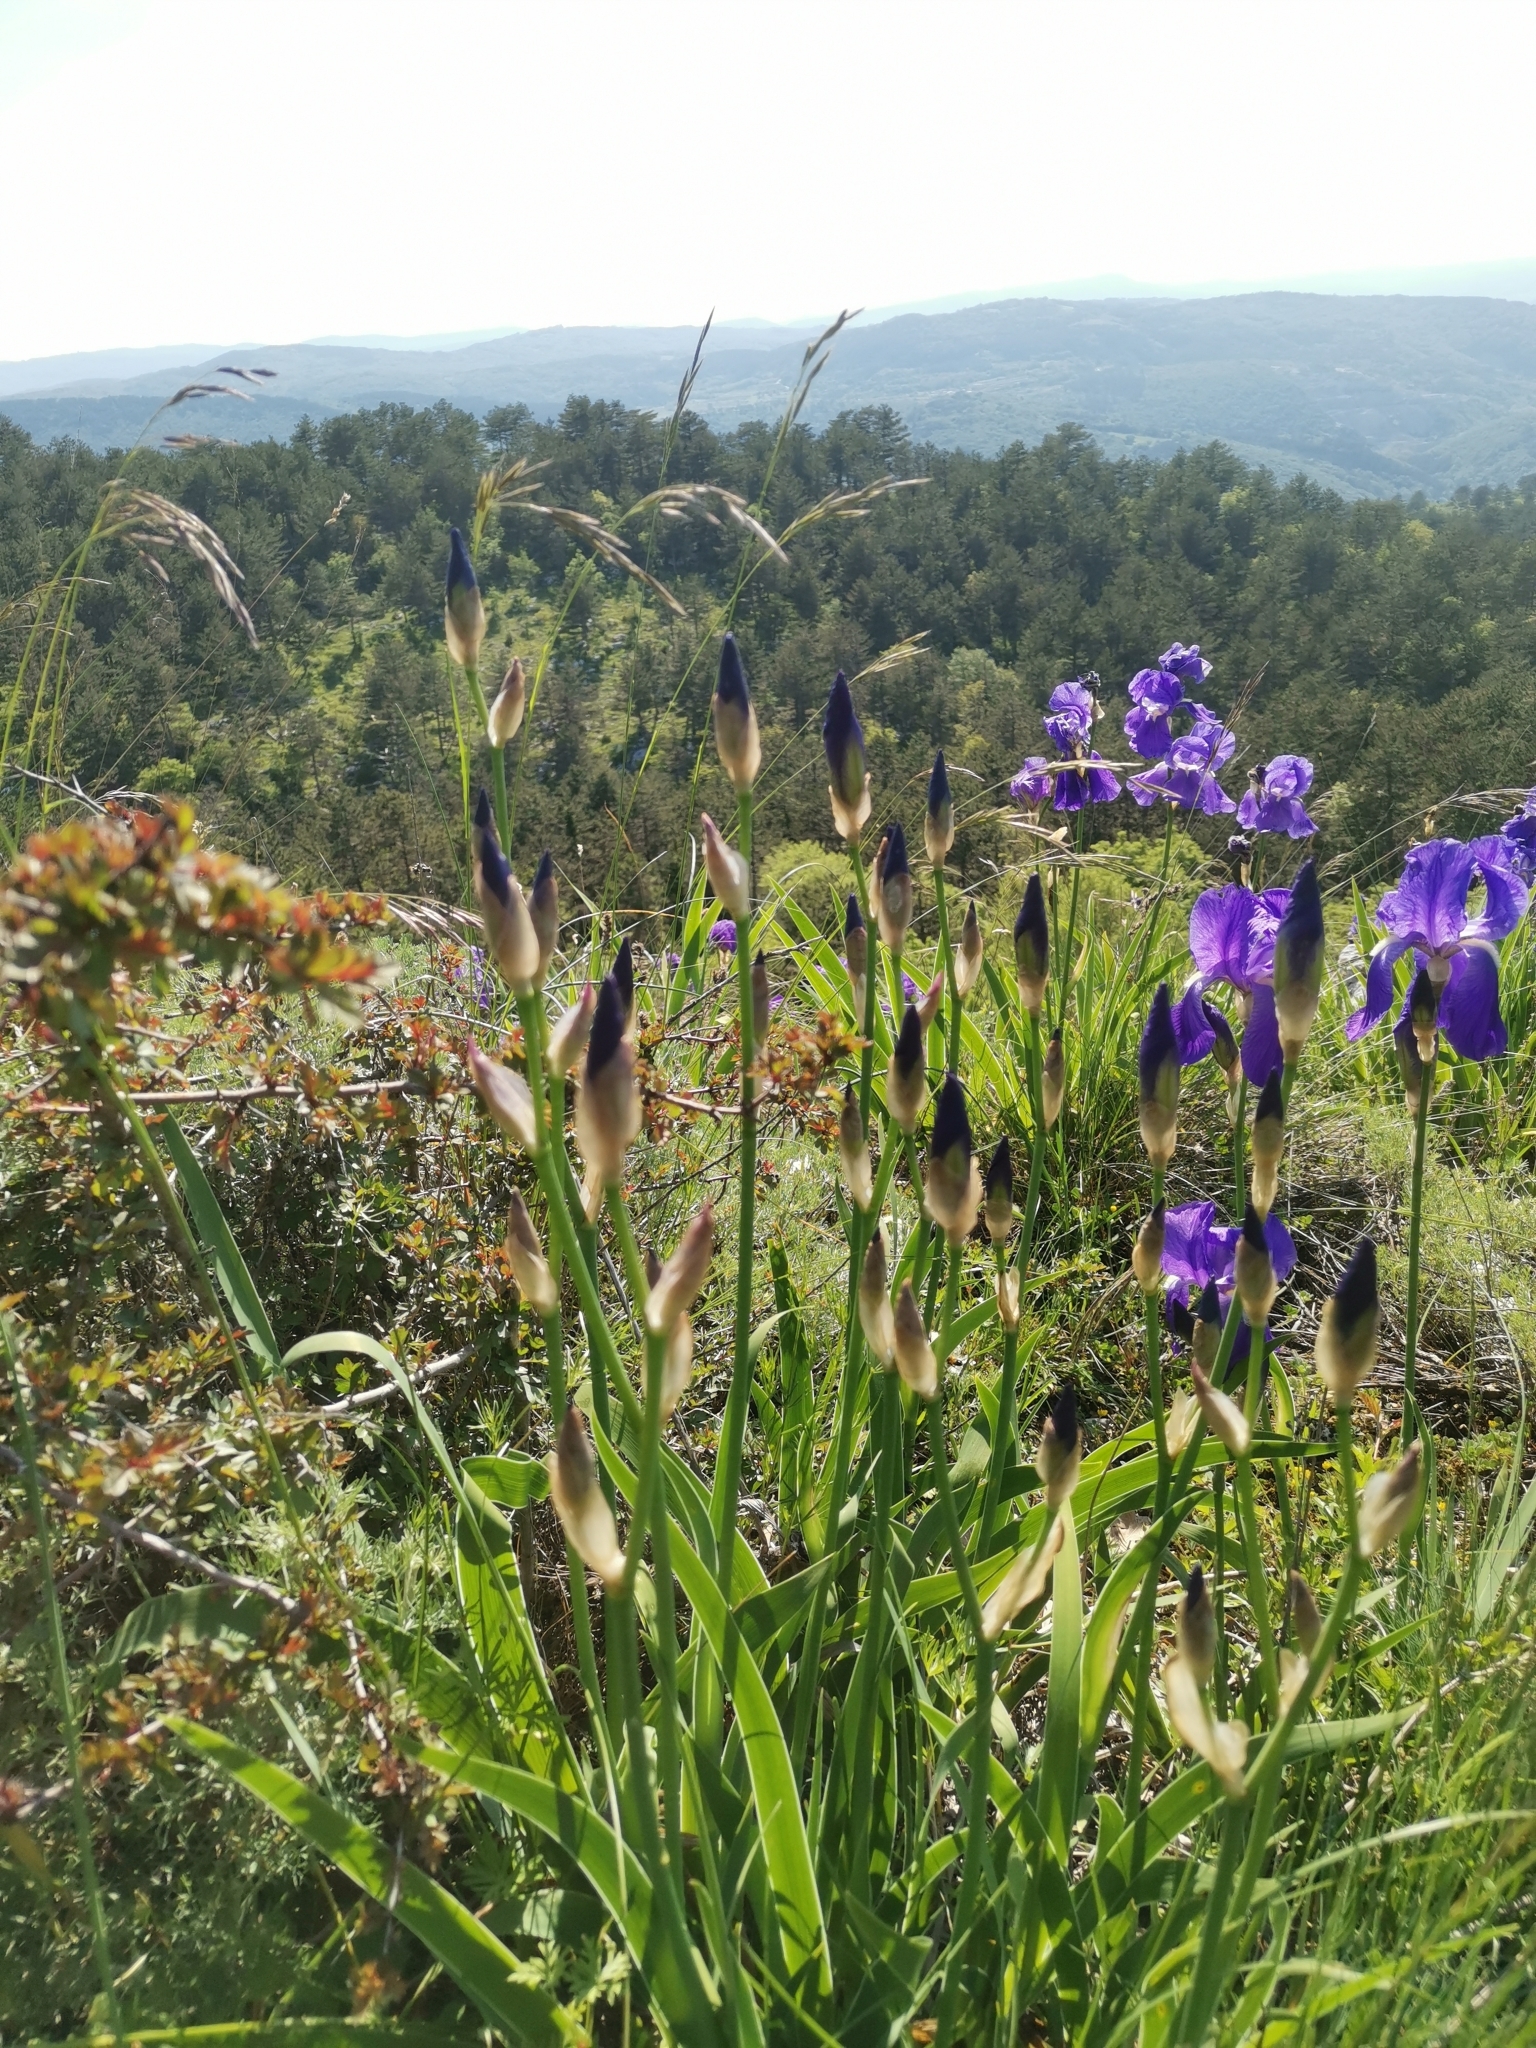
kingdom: Plantae
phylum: Tracheophyta
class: Liliopsida
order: Asparagales
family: Iridaceae
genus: Iris
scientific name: Iris pallida
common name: Sweet iris
